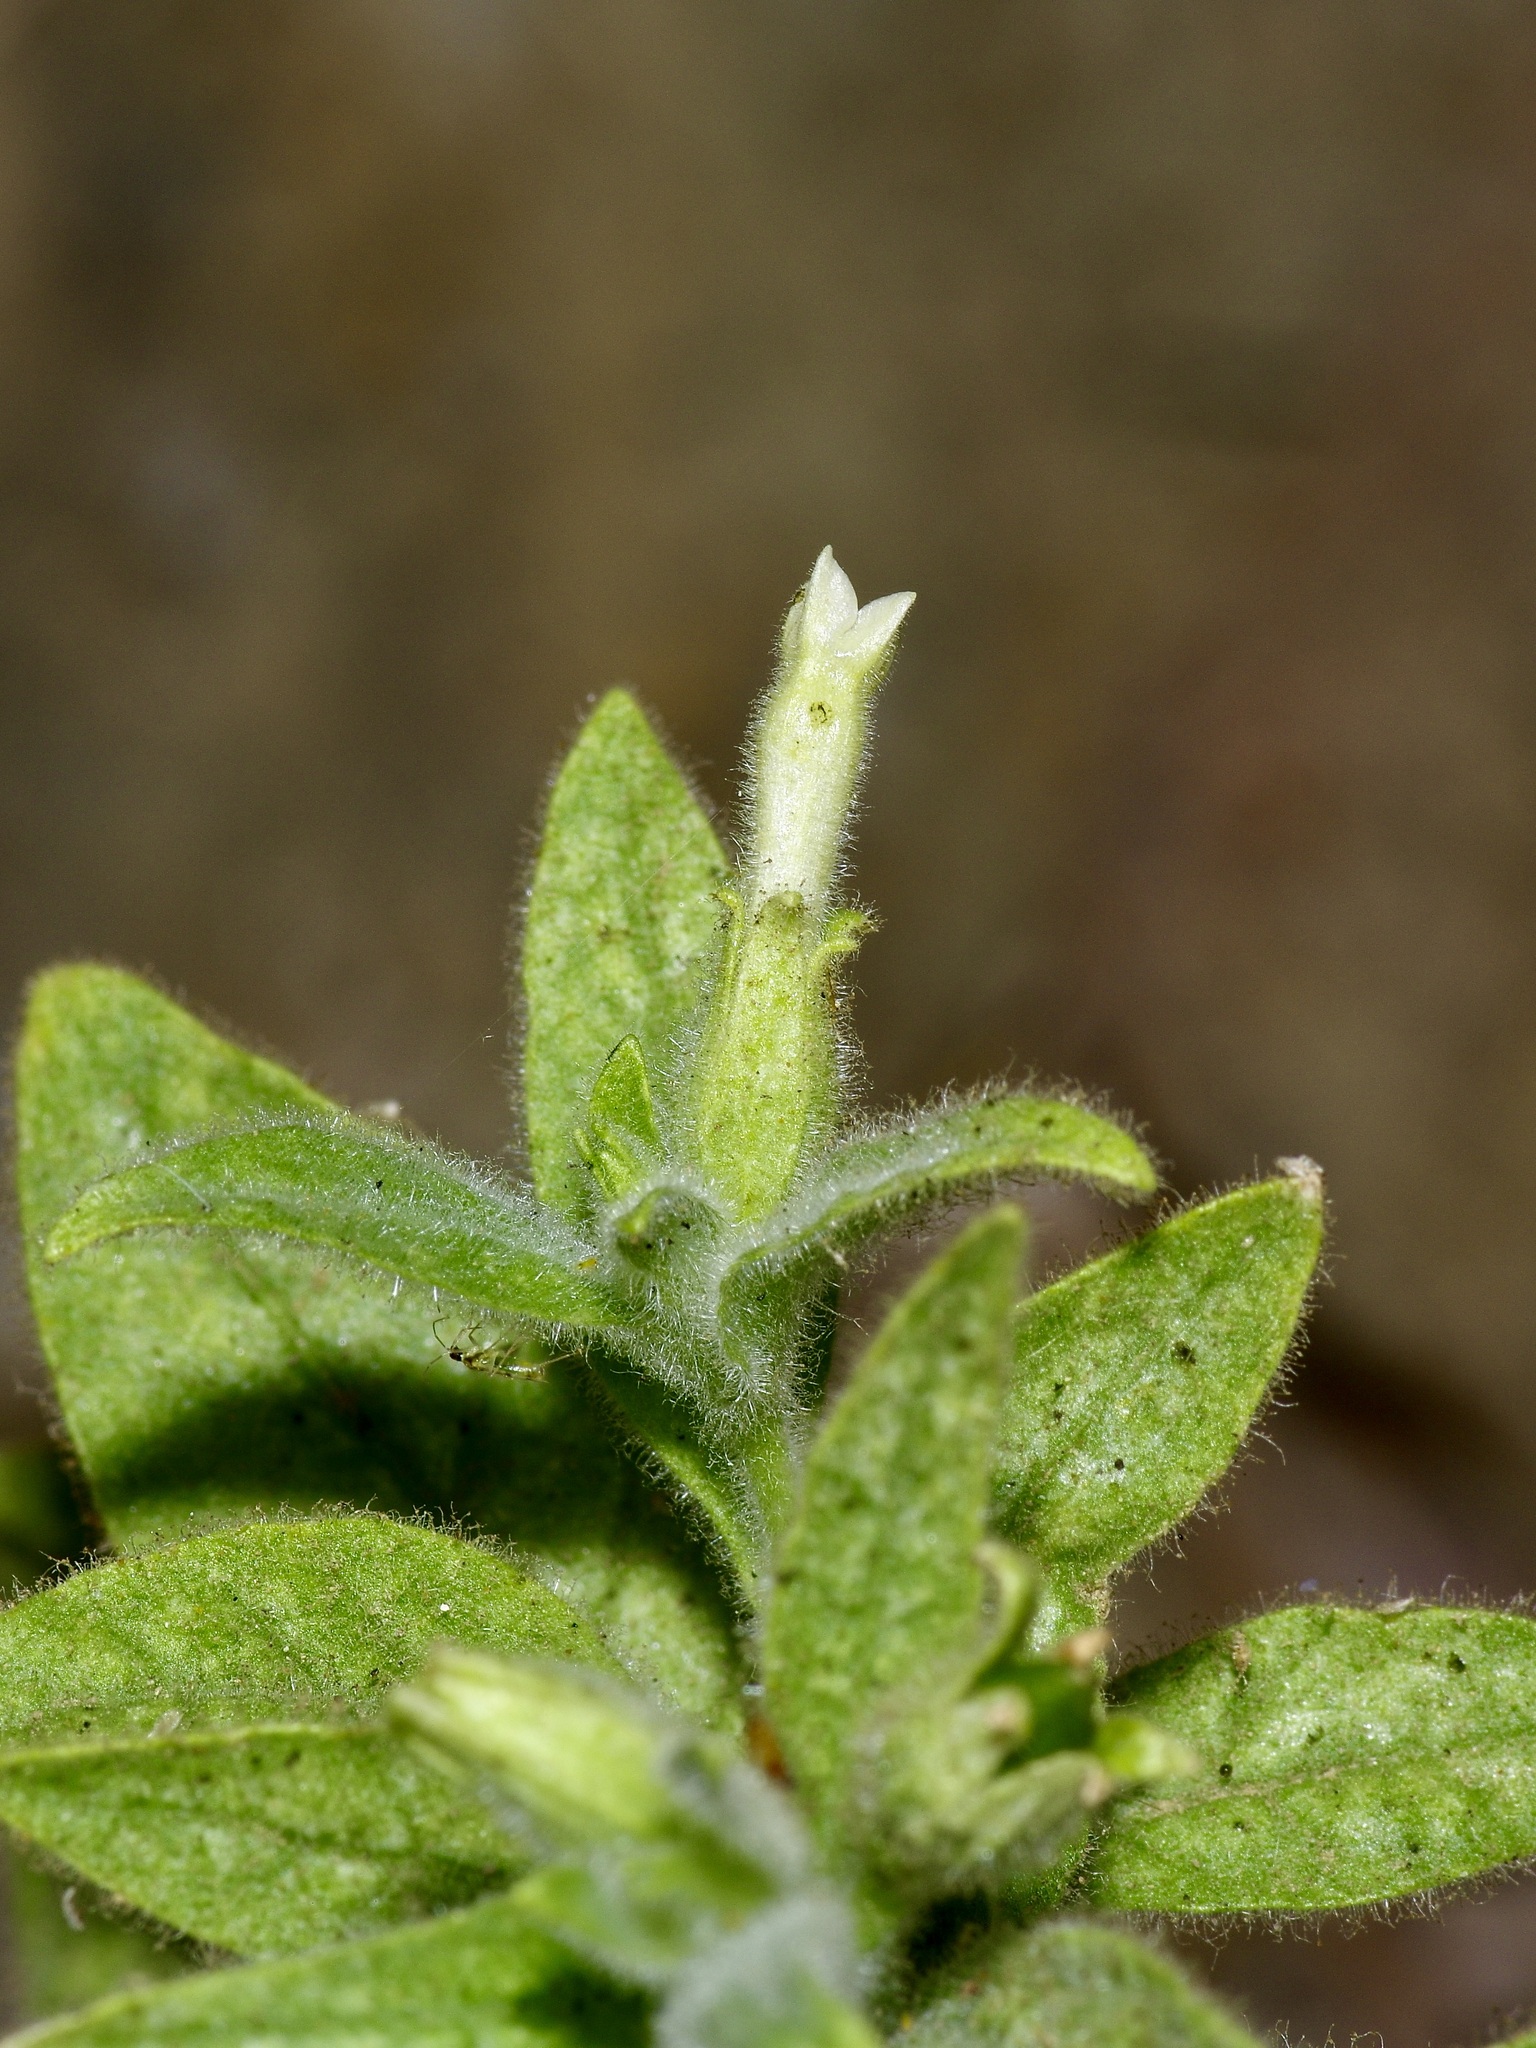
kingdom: Plantae
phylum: Tracheophyta
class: Magnoliopsida
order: Solanales
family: Solanaceae
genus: Nicotiana
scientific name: Nicotiana obtusifolia
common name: Desert tobacco
